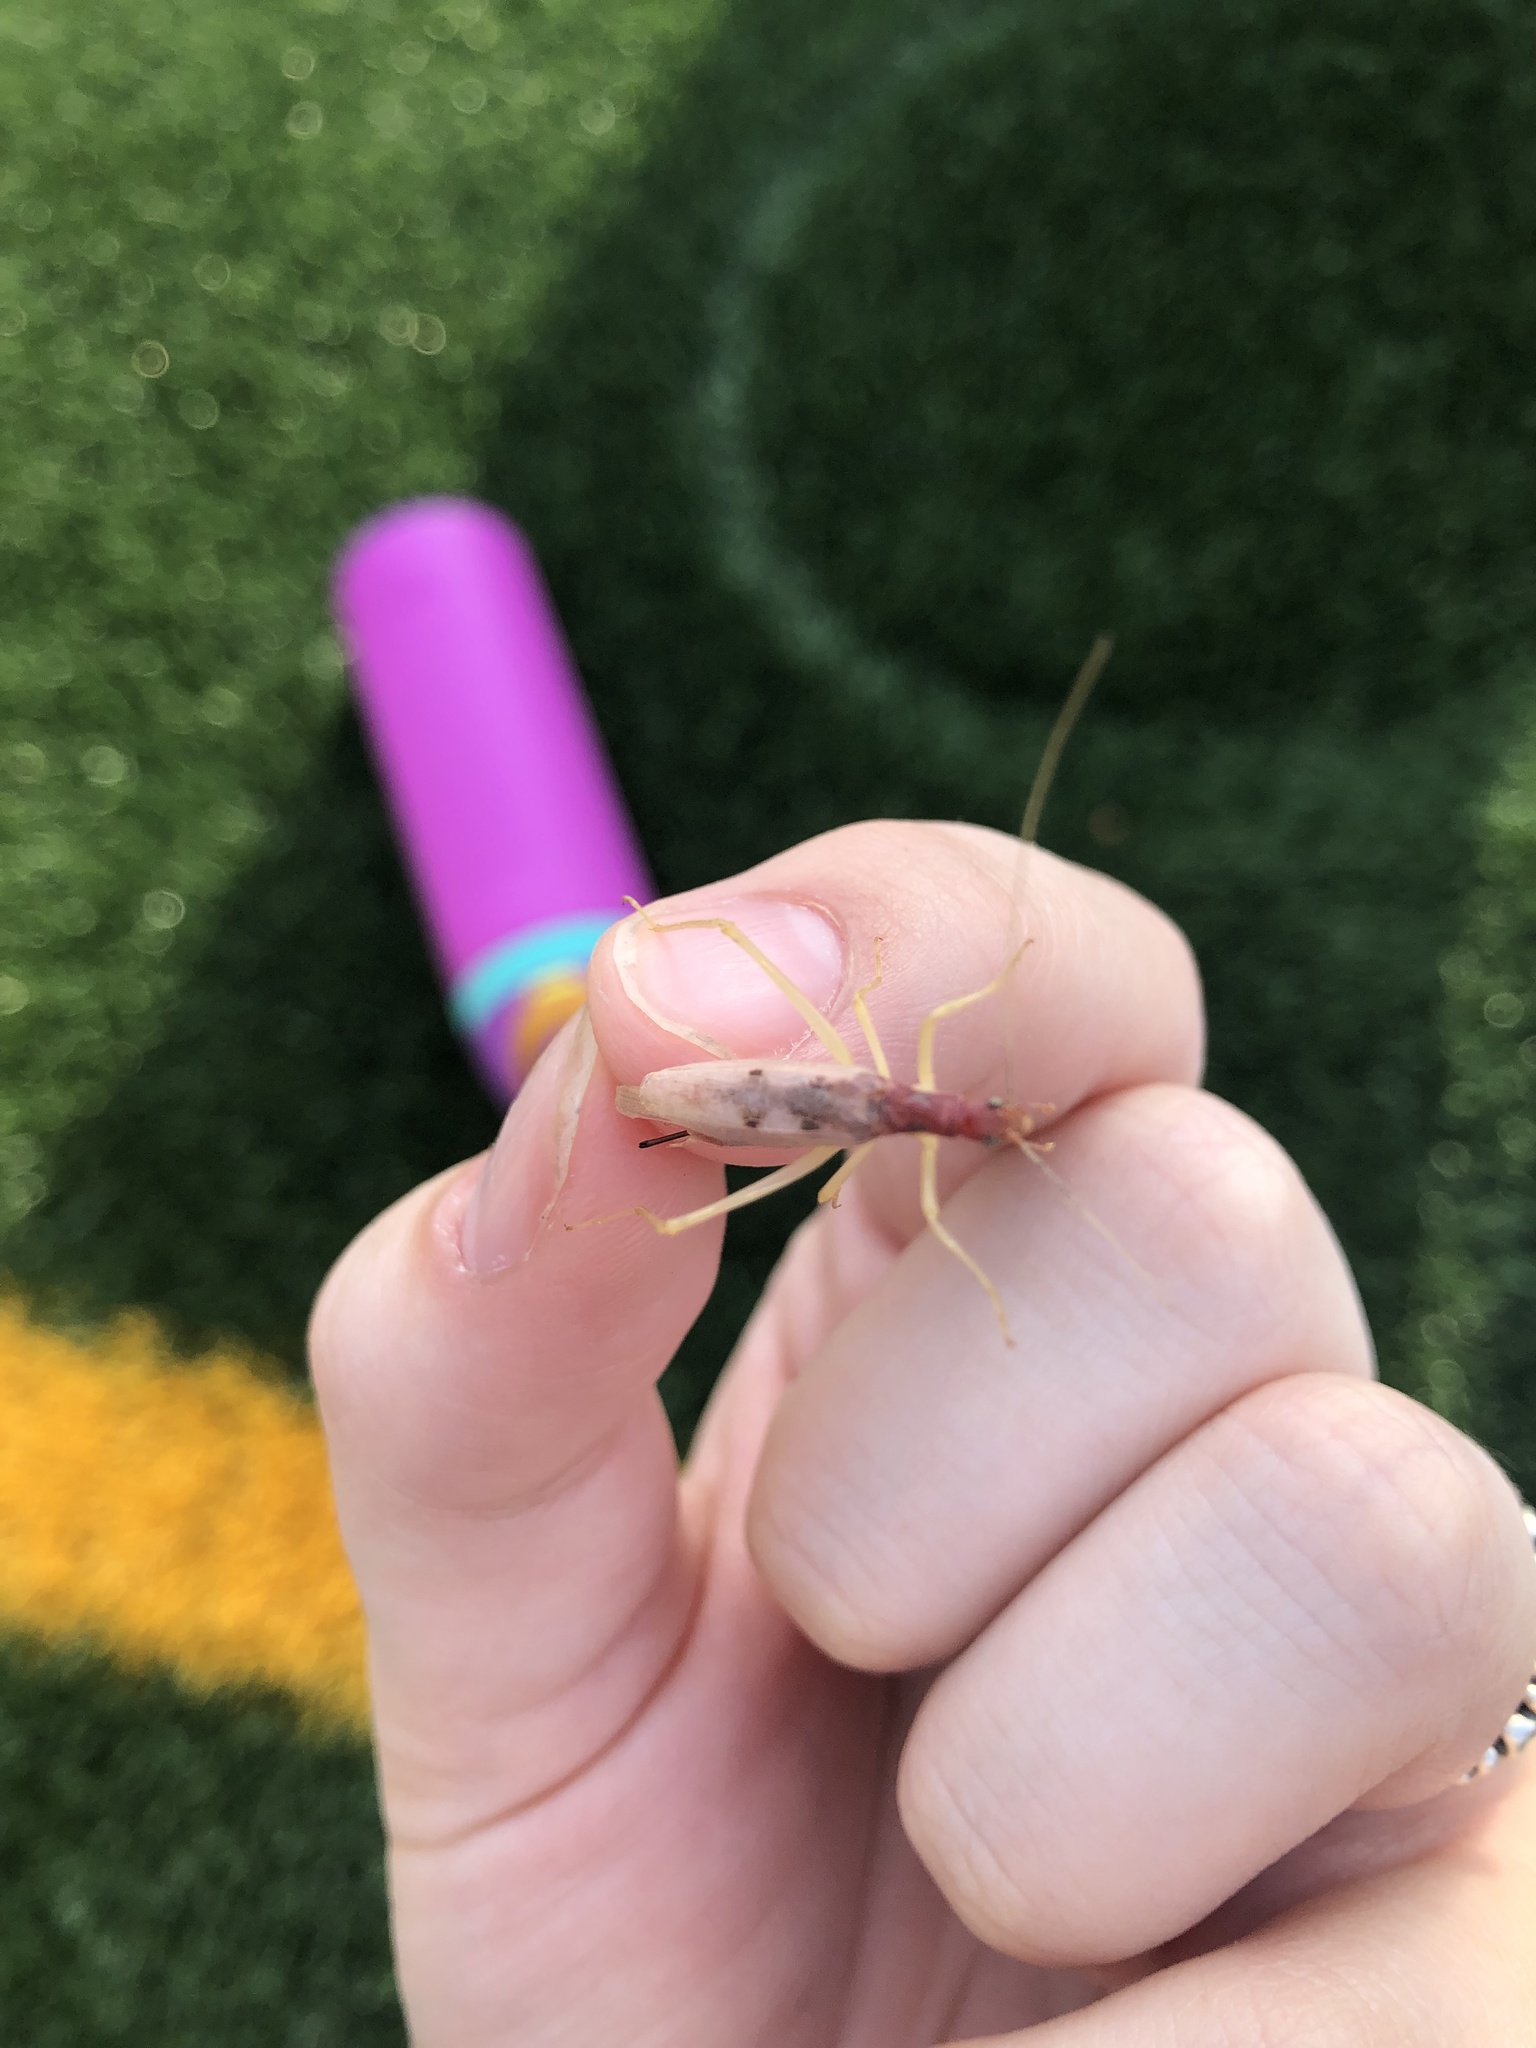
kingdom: Animalia
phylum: Arthropoda
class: Insecta
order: Orthoptera
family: Gryllidae
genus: Neoxabea
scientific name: Neoxabea bipunctata
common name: Two-spotted tree cricket
